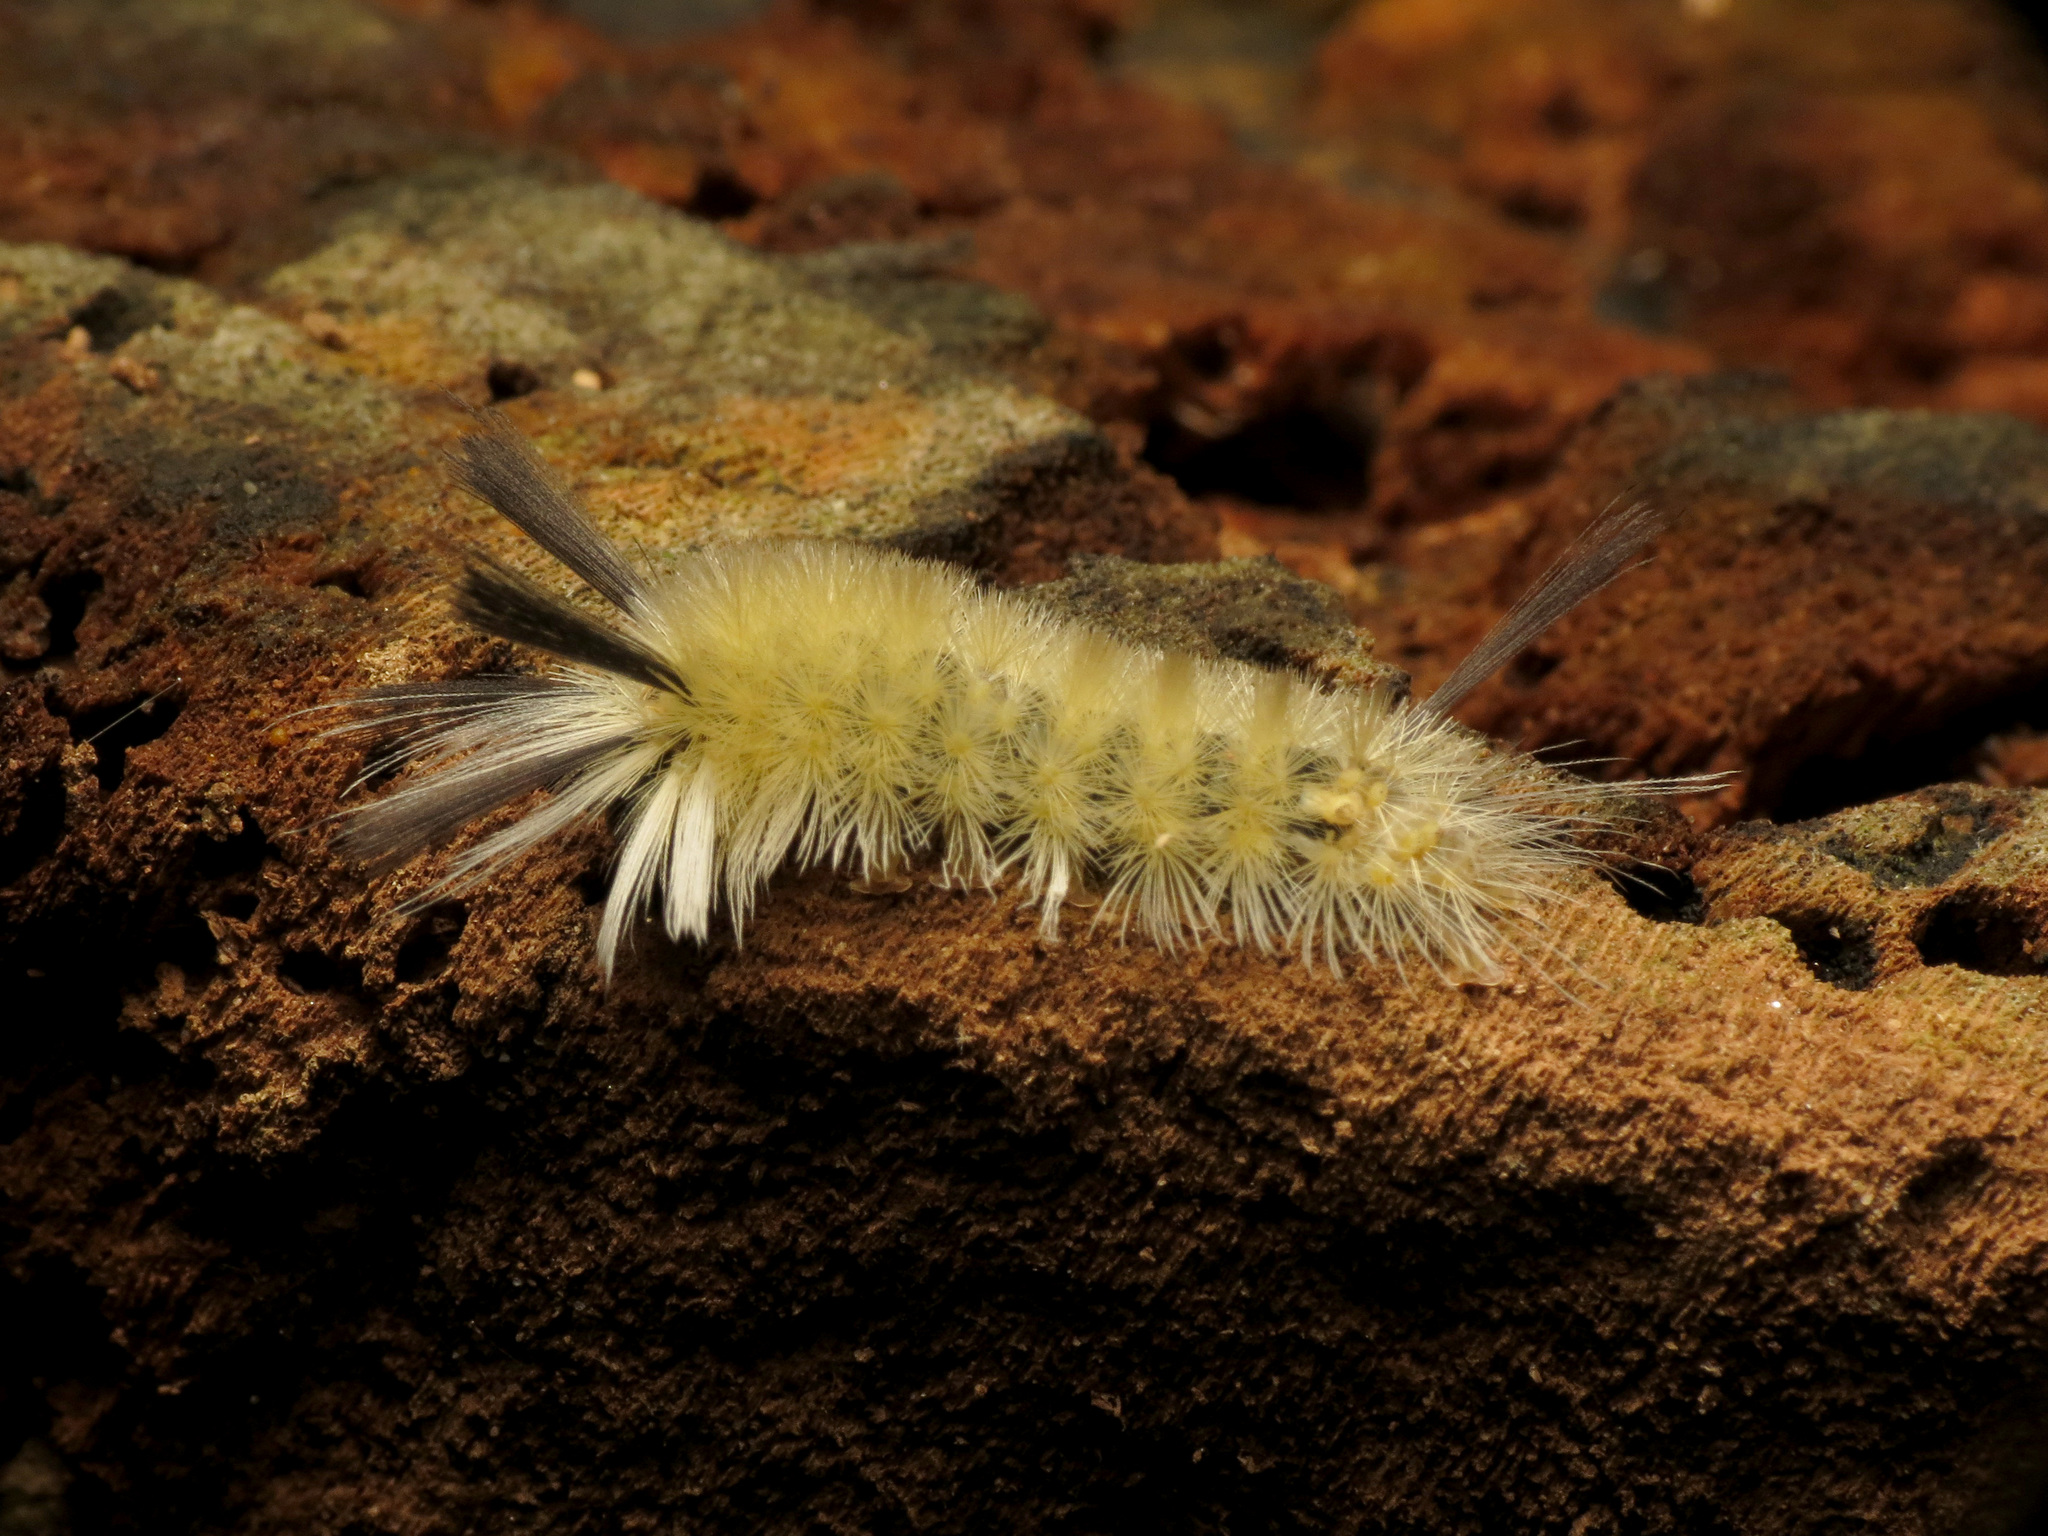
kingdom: Animalia
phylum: Arthropoda
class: Insecta
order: Lepidoptera
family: Erebidae
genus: Halysidota
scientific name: Halysidota tessellaris
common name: Banded tussock moth
